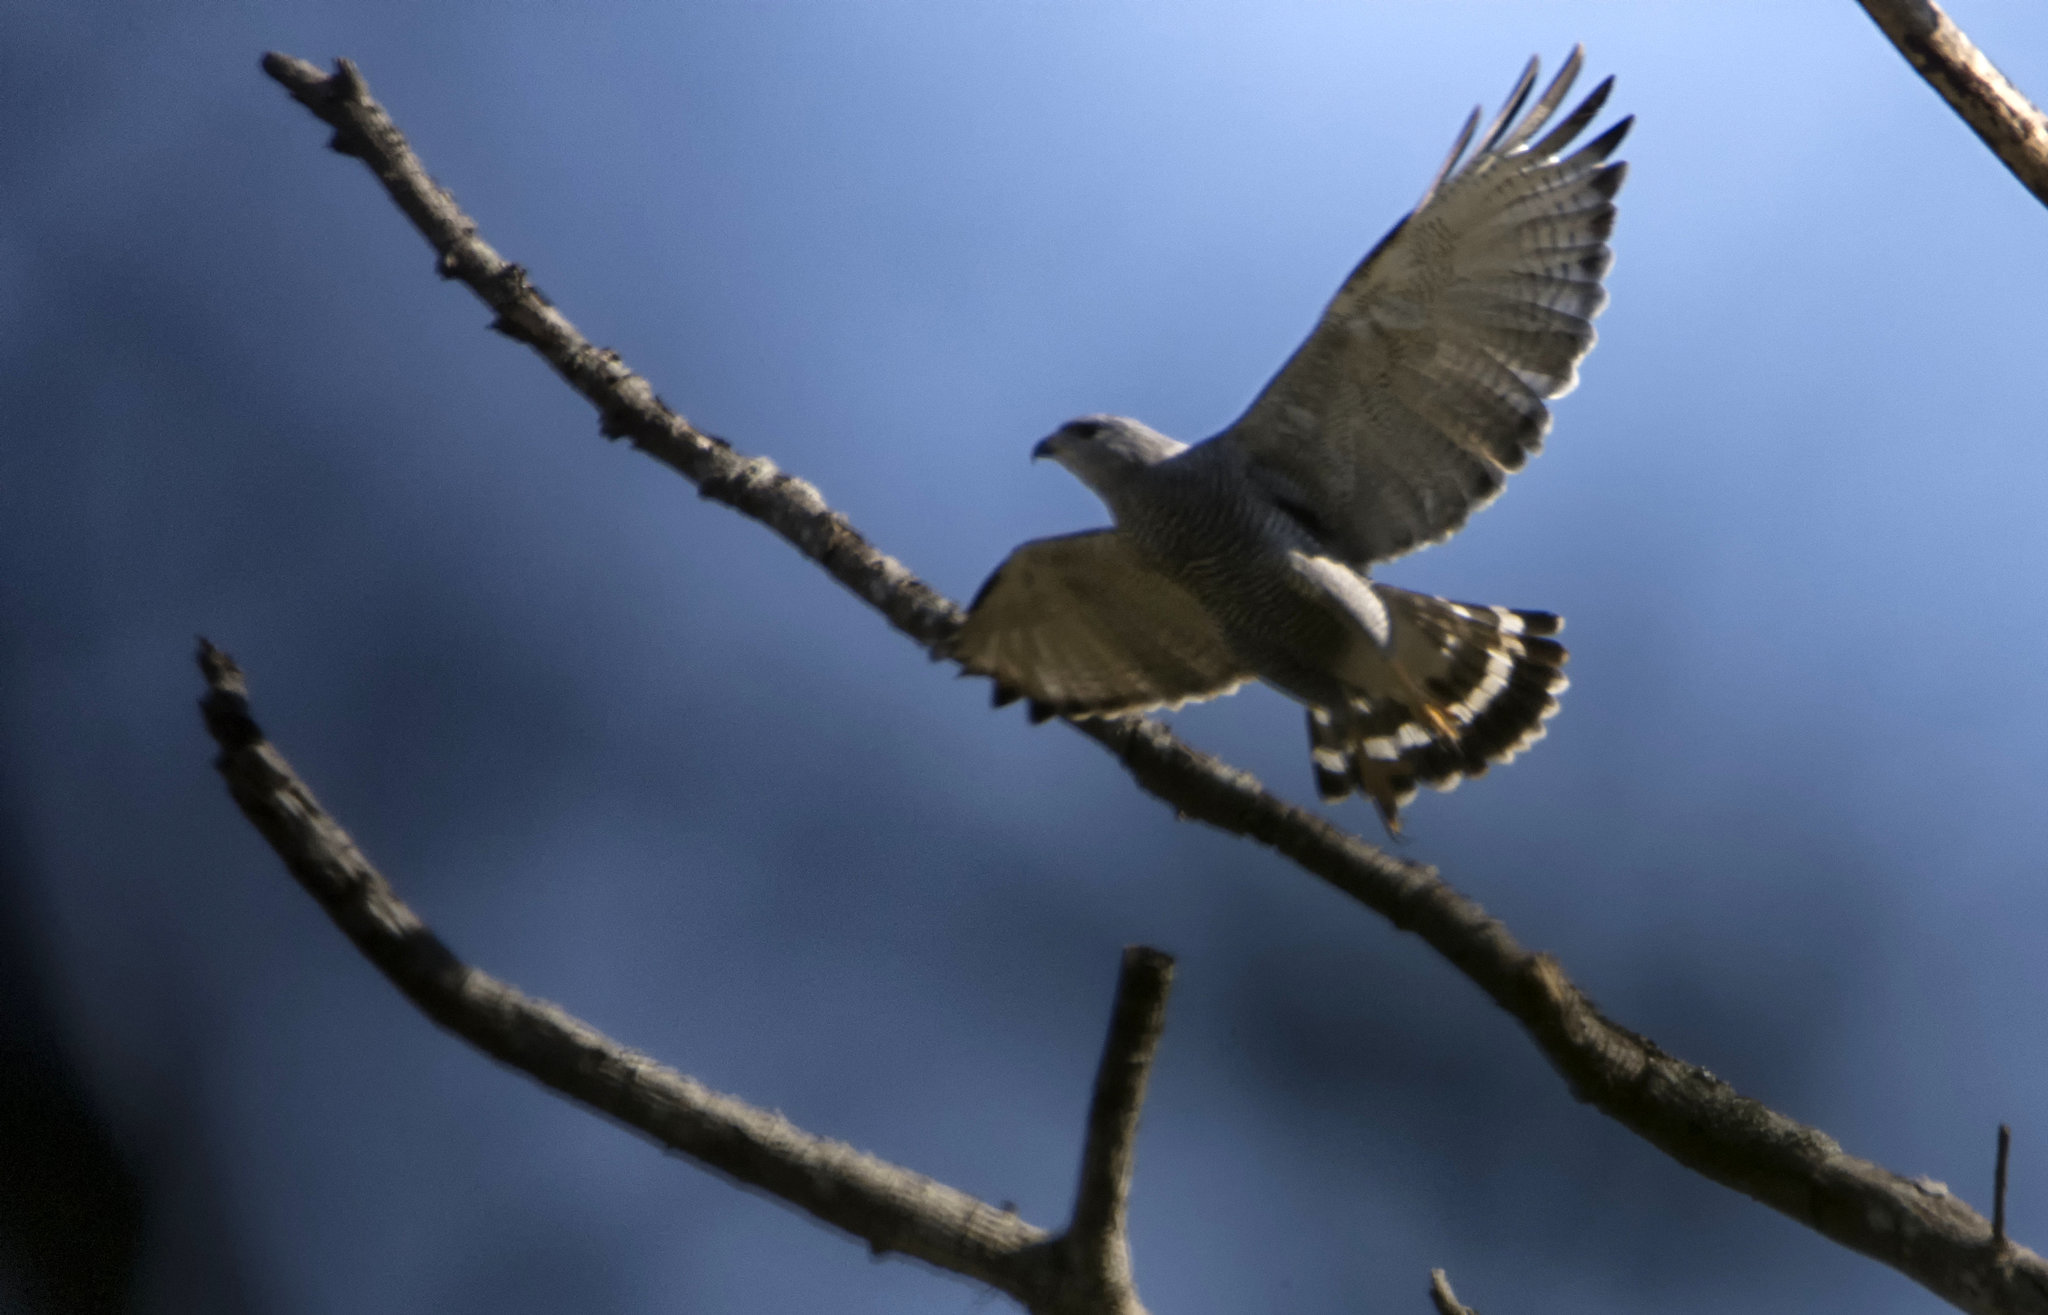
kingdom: Animalia
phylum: Chordata
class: Aves
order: Accipitriformes
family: Accipitridae
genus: Buteo
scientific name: Buteo nitidus
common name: Grey-lined hawk
